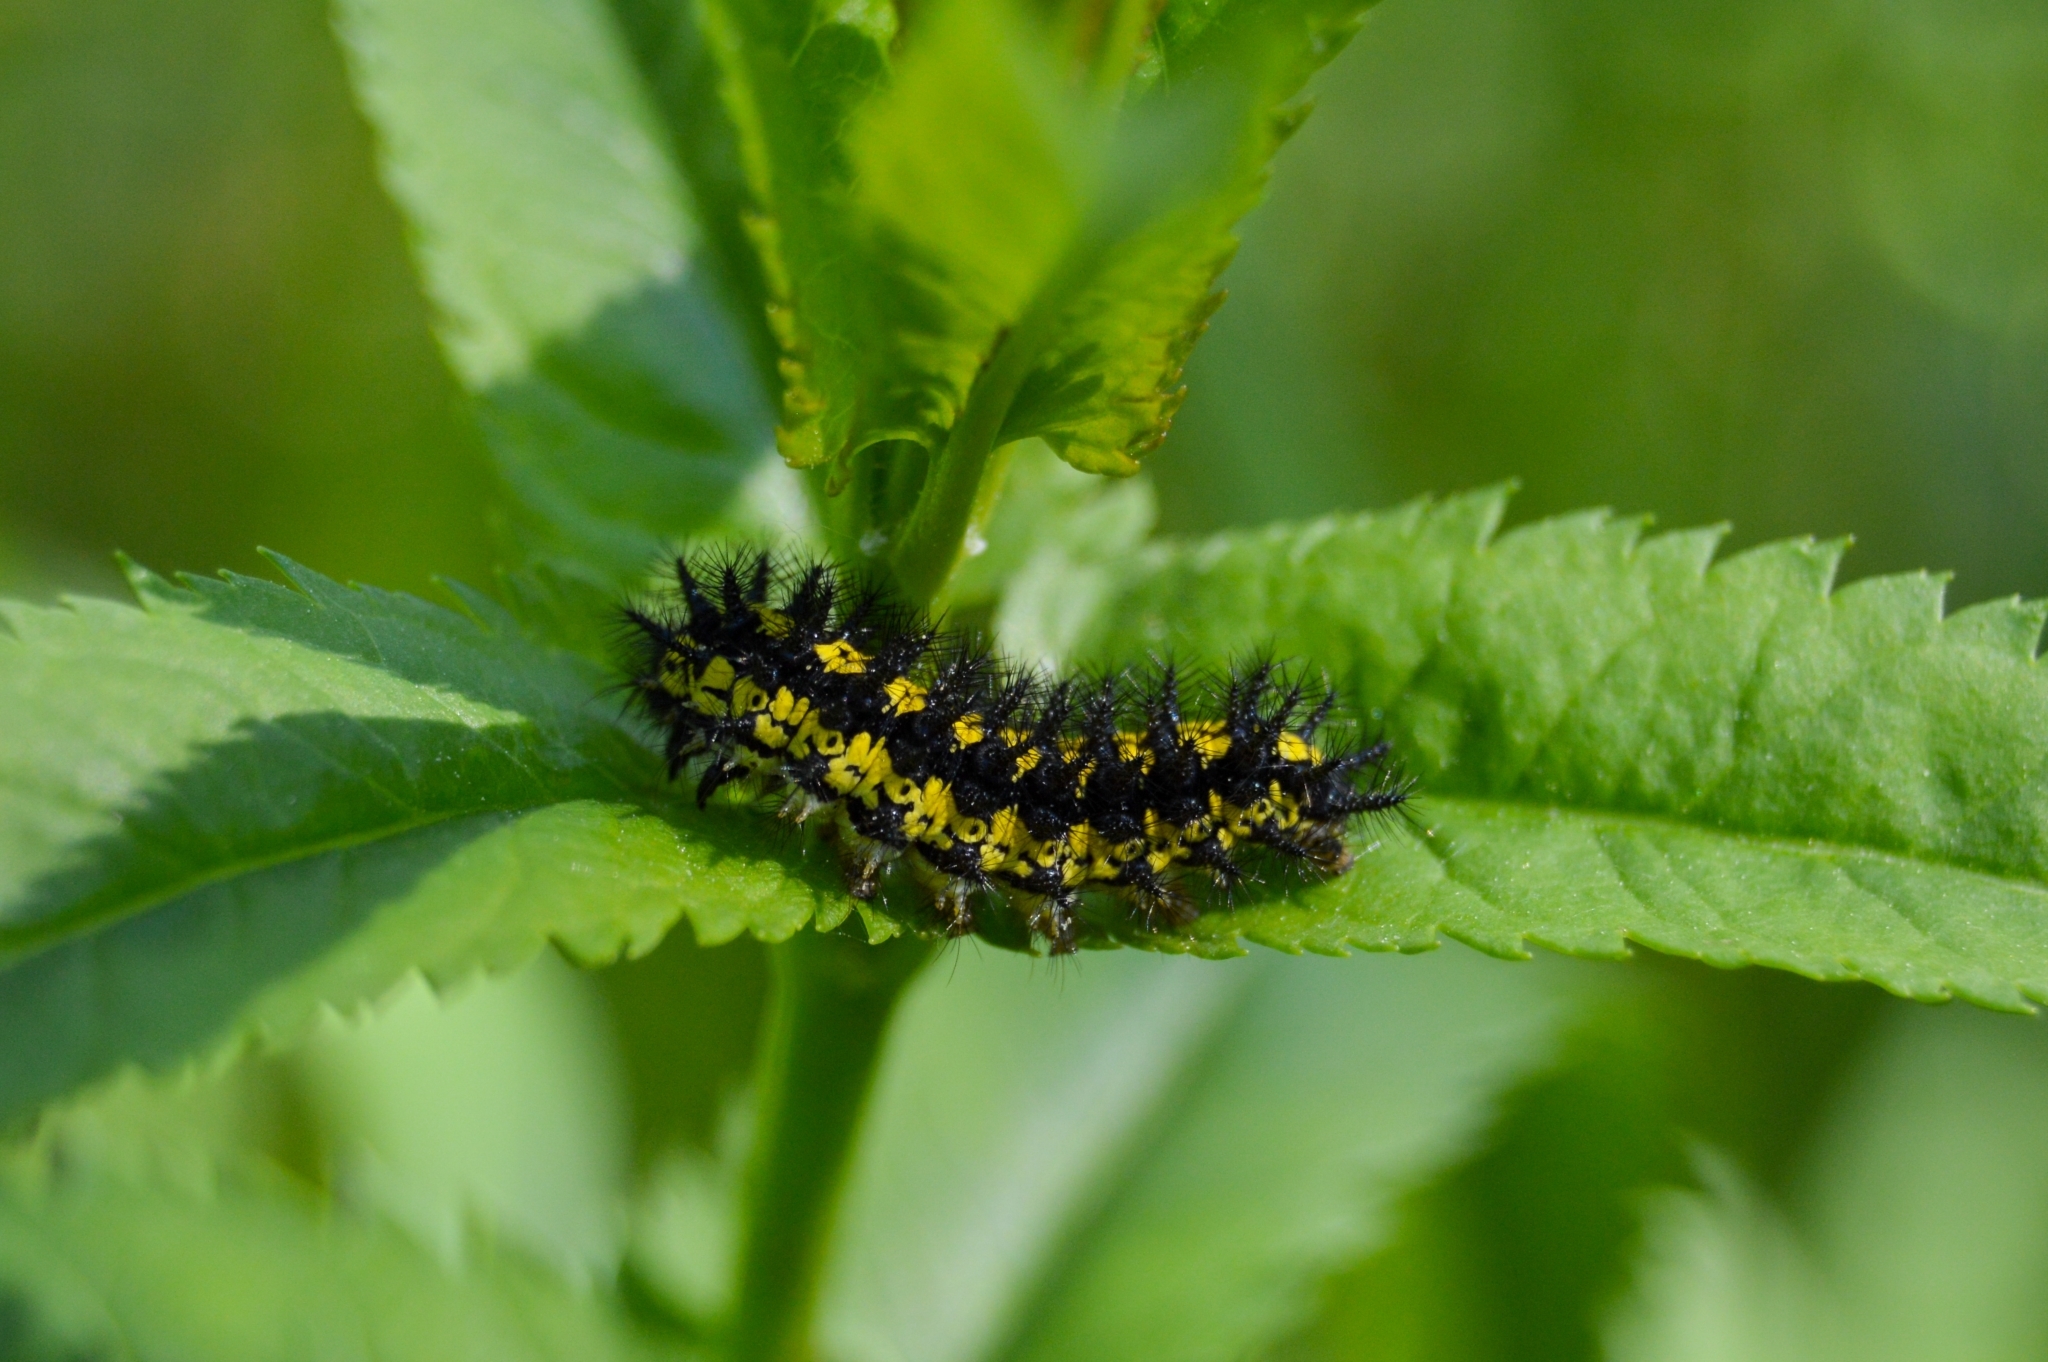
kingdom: Animalia
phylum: Arthropoda
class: Insecta
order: Lepidoptera
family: Nymphalidae
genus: Euphydryas
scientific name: Euphydryas maturna
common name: Scarce fritillary
